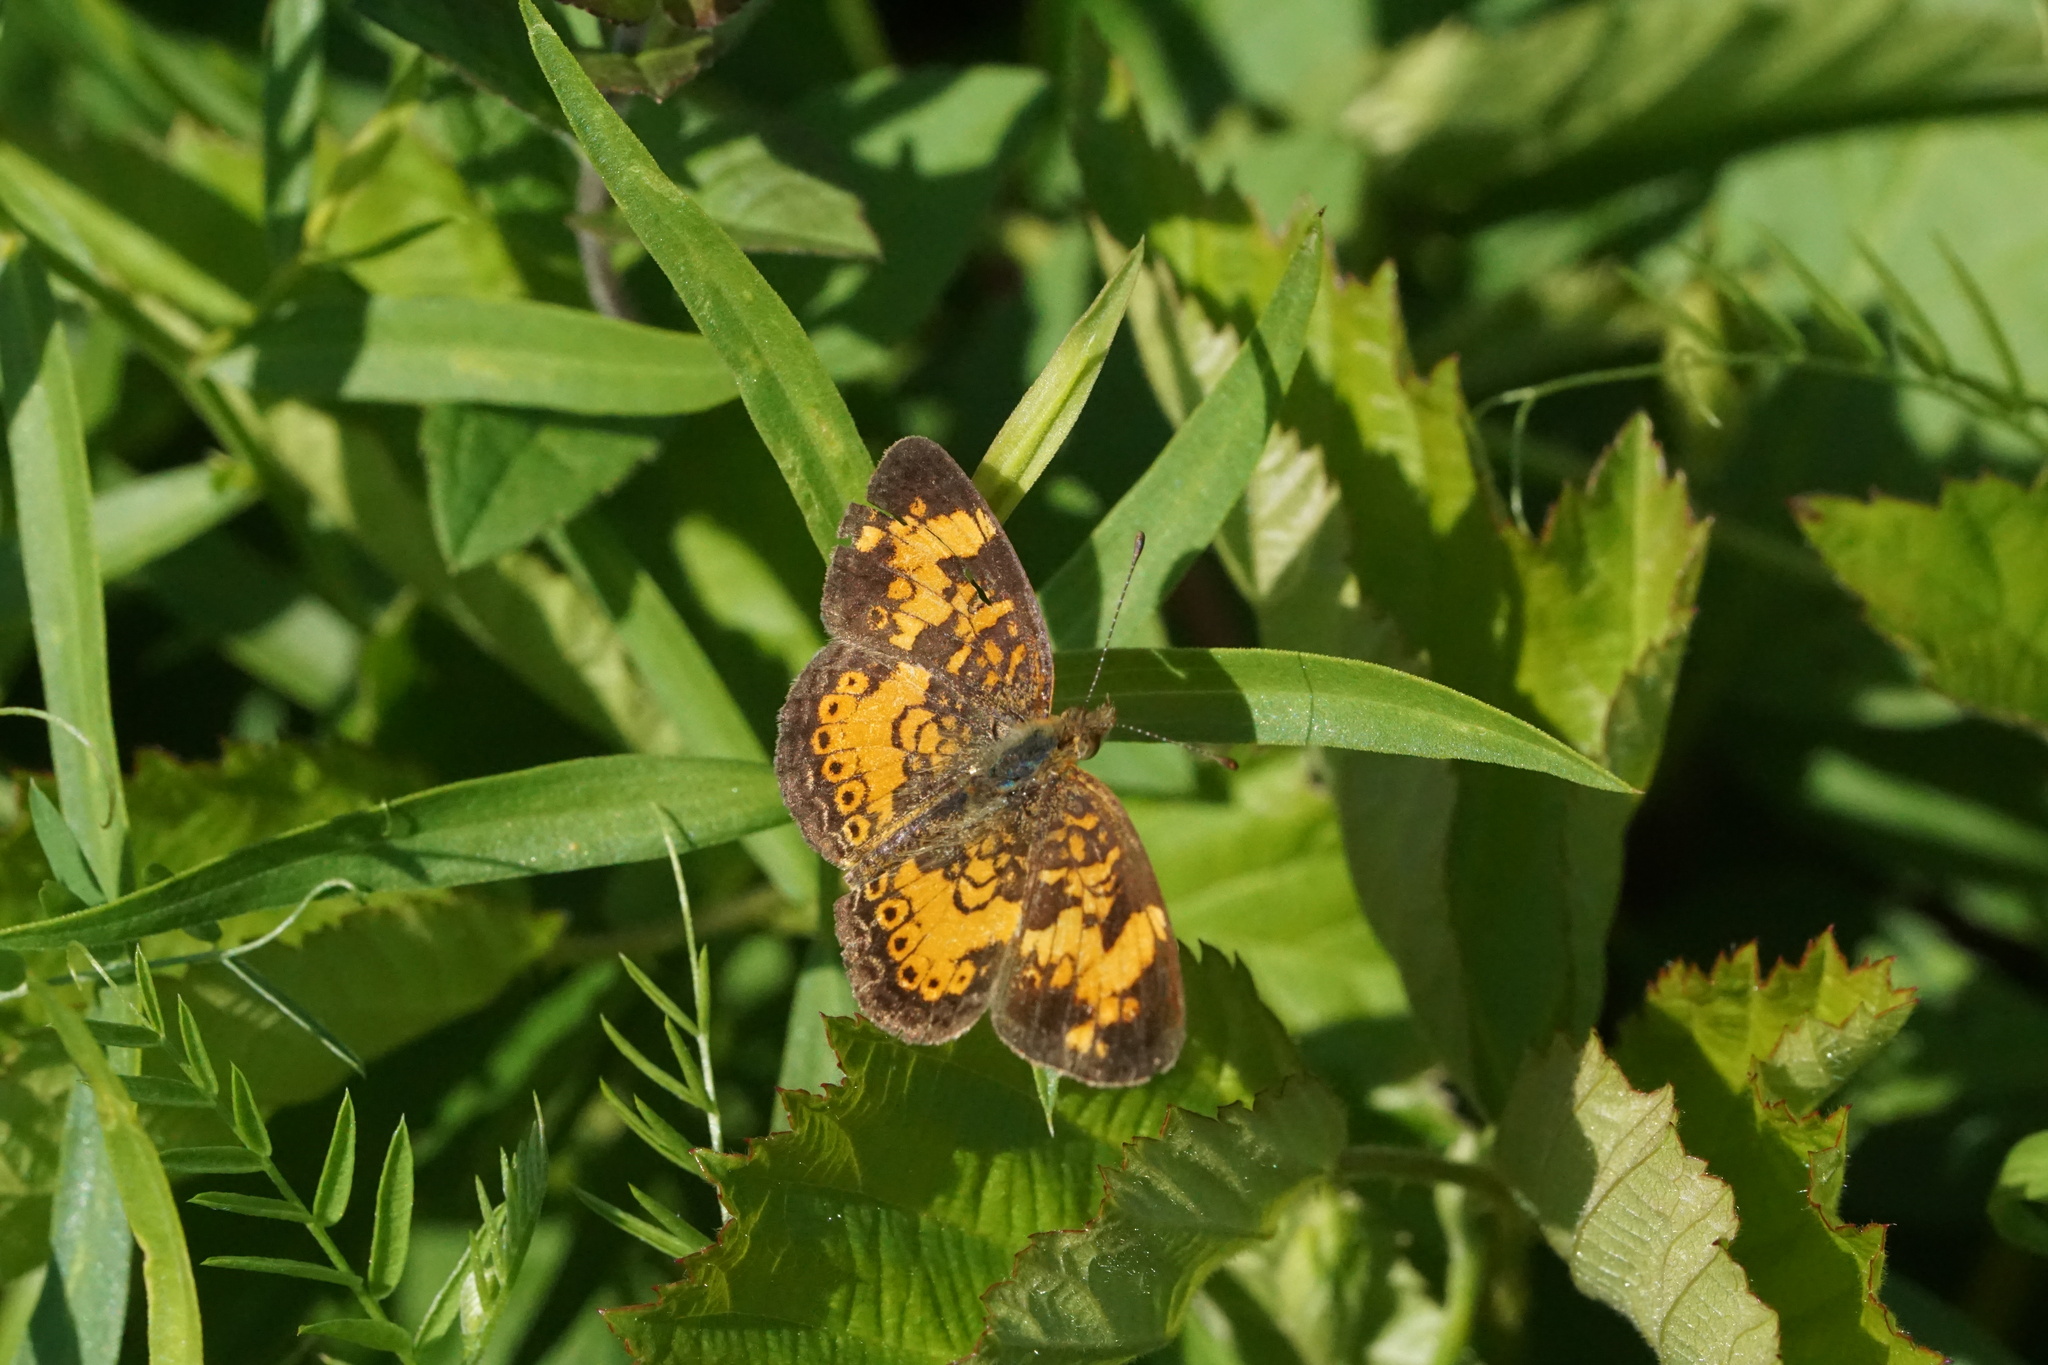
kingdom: Animalia
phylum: Arthropoda
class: Insecta
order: Lepidoptera
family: Nymphalidae
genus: Phyciodes
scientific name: Phyciodes tharos
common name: Pearl crescent
